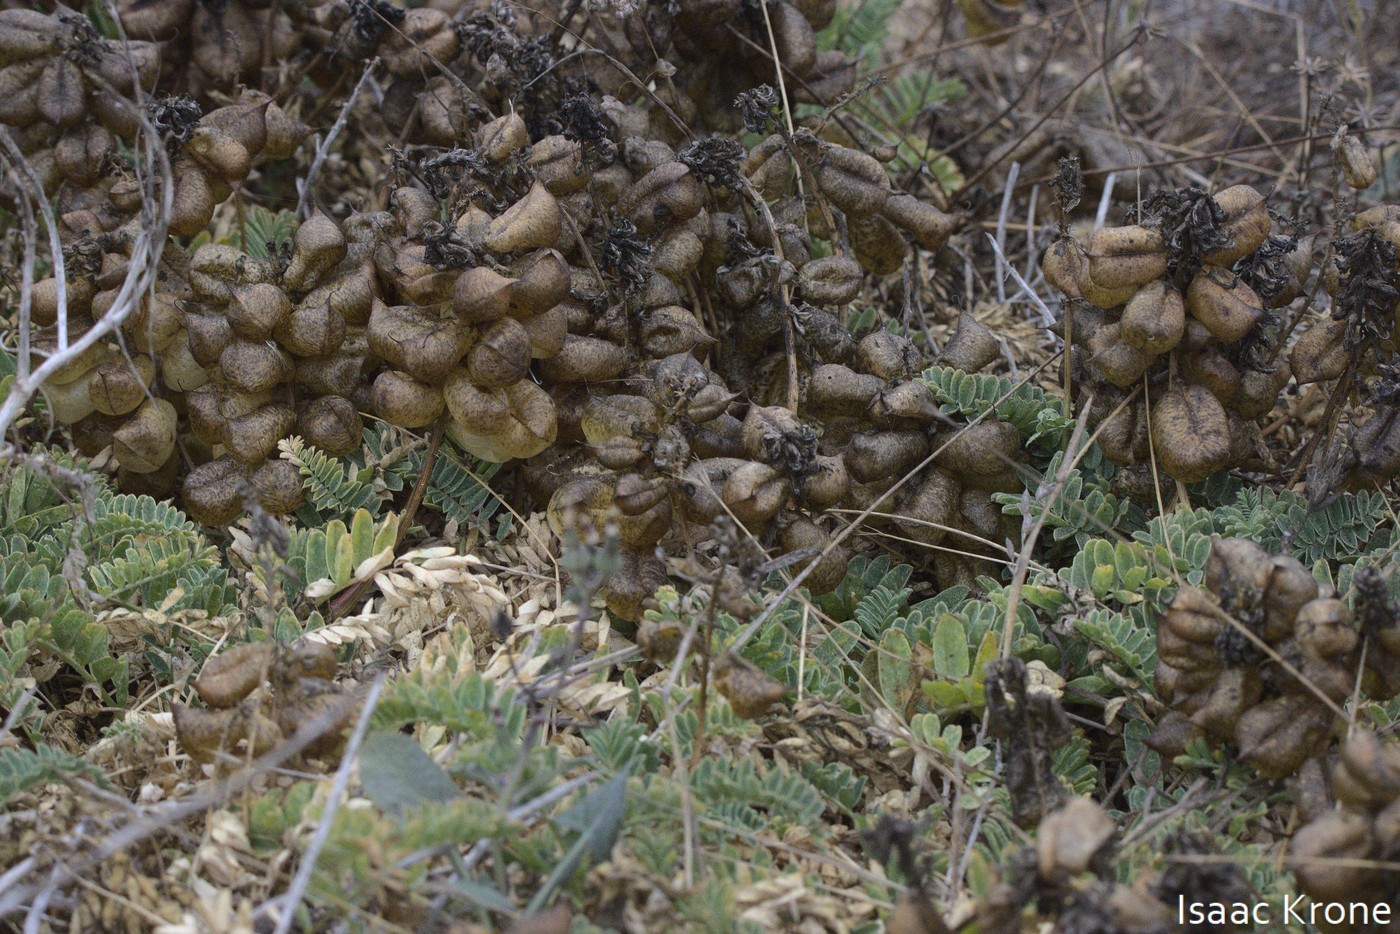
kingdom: Plantae
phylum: Tracheophyta
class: Magnoliopsida
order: Fabales
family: Fabaceae
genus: Astragalus
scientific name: Astragalus nuttallii
